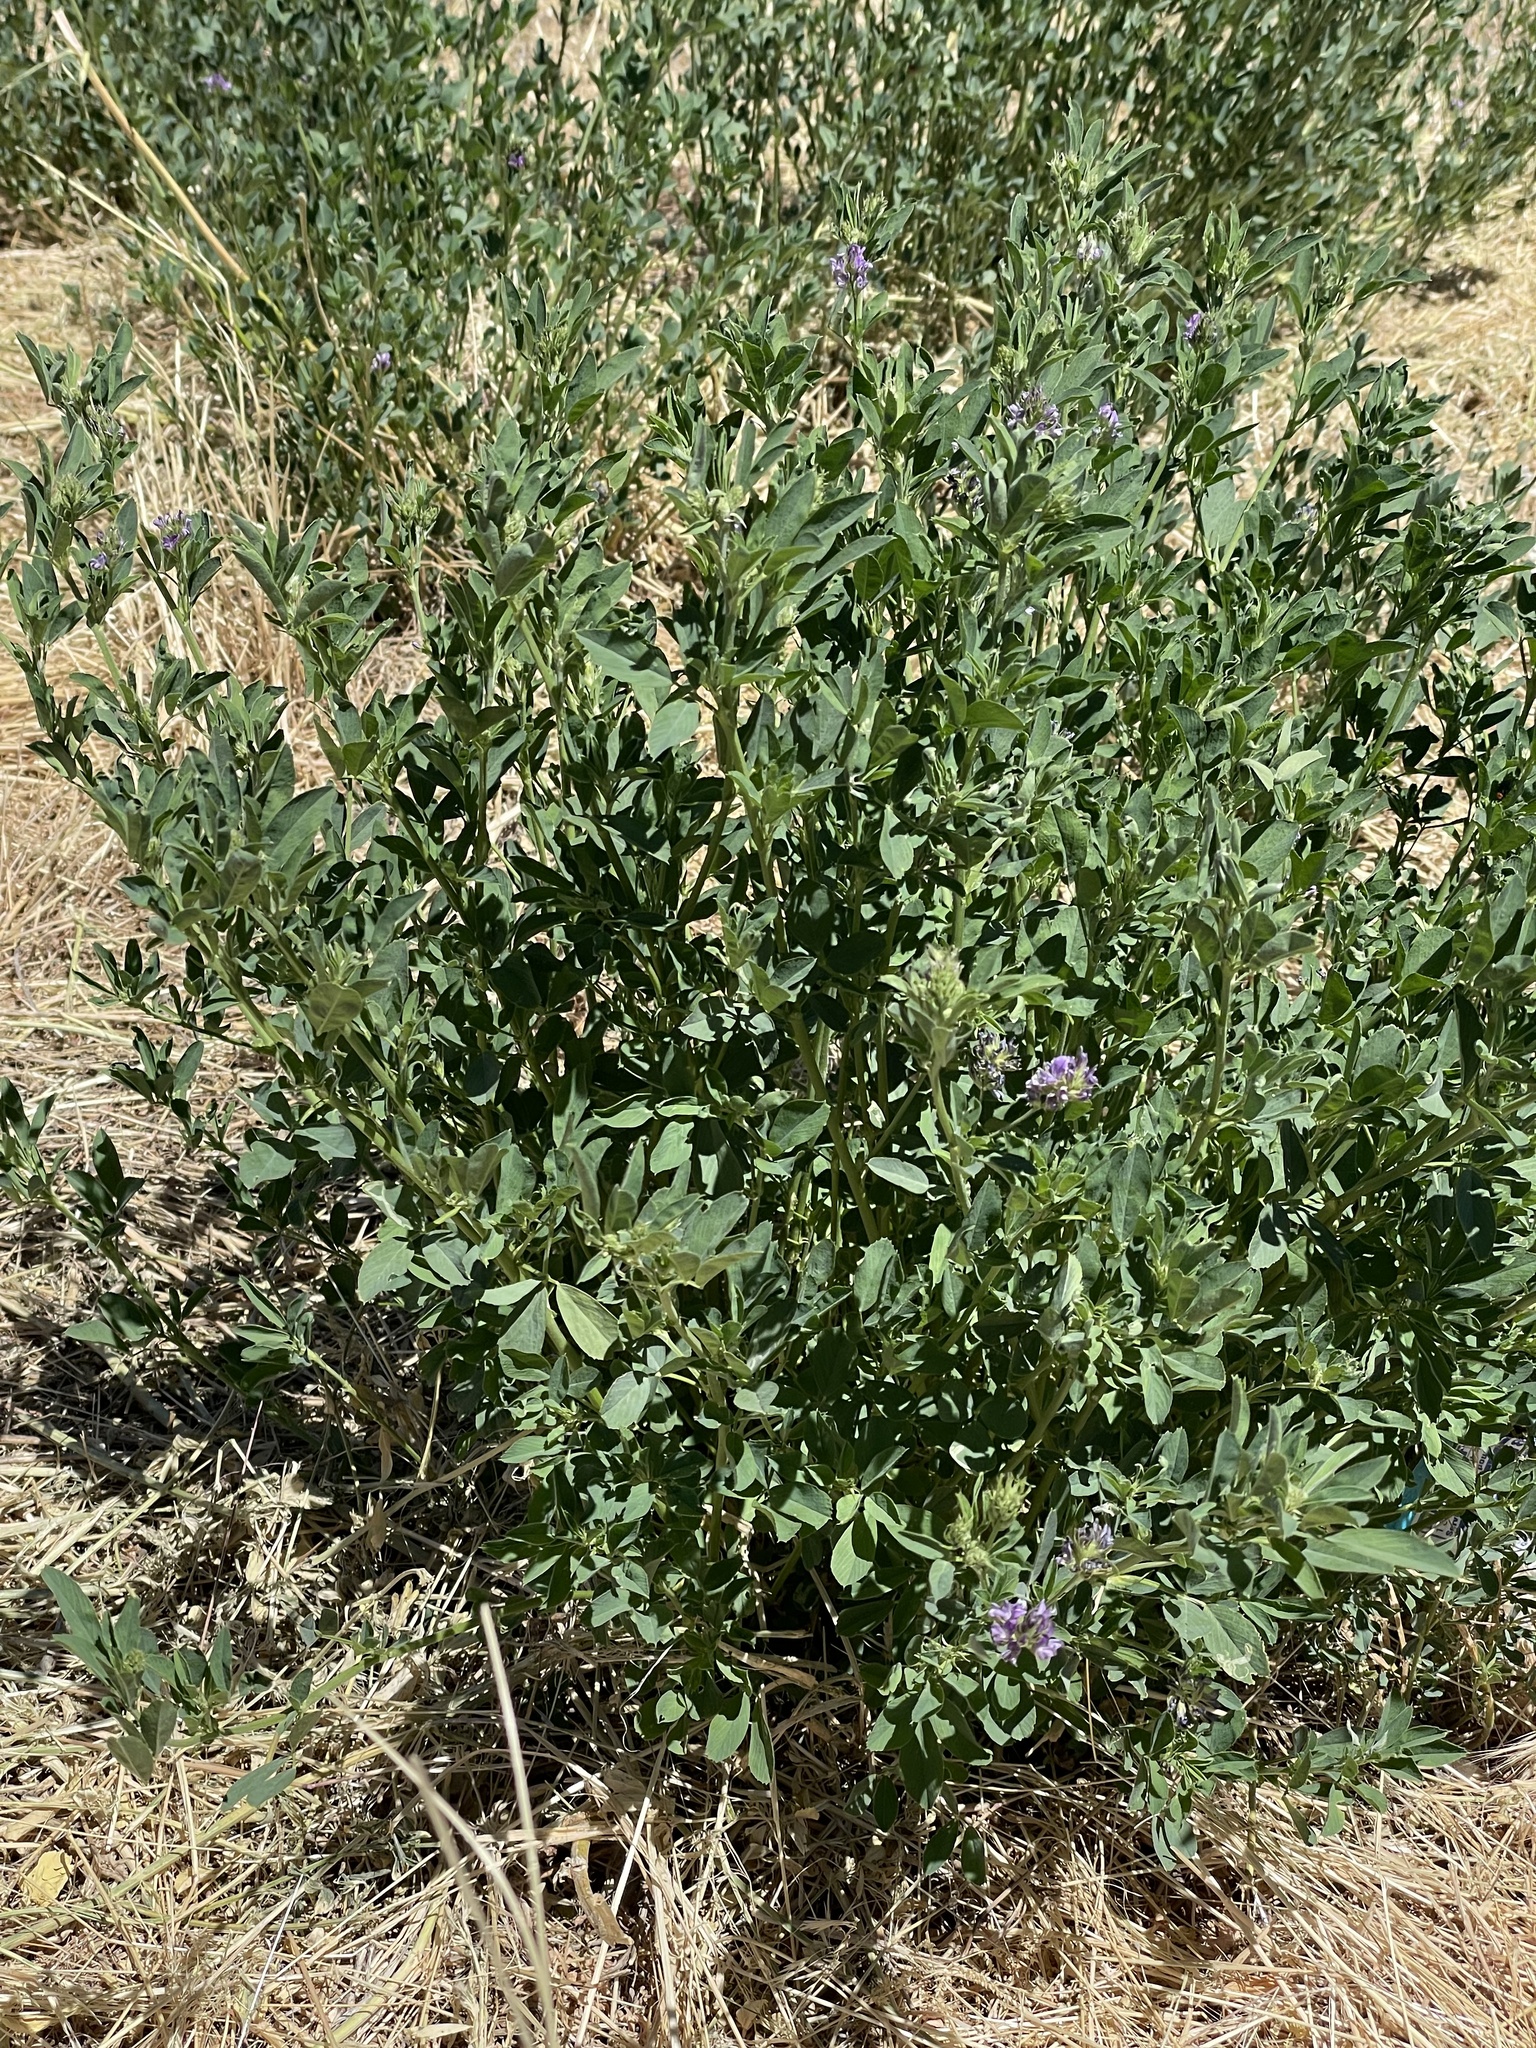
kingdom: Plantae
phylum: Tracheophyta
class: Magnoliopsida
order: Fabales
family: Fabaceae
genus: Medicago
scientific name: Medicago sativa
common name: Alfalfa
